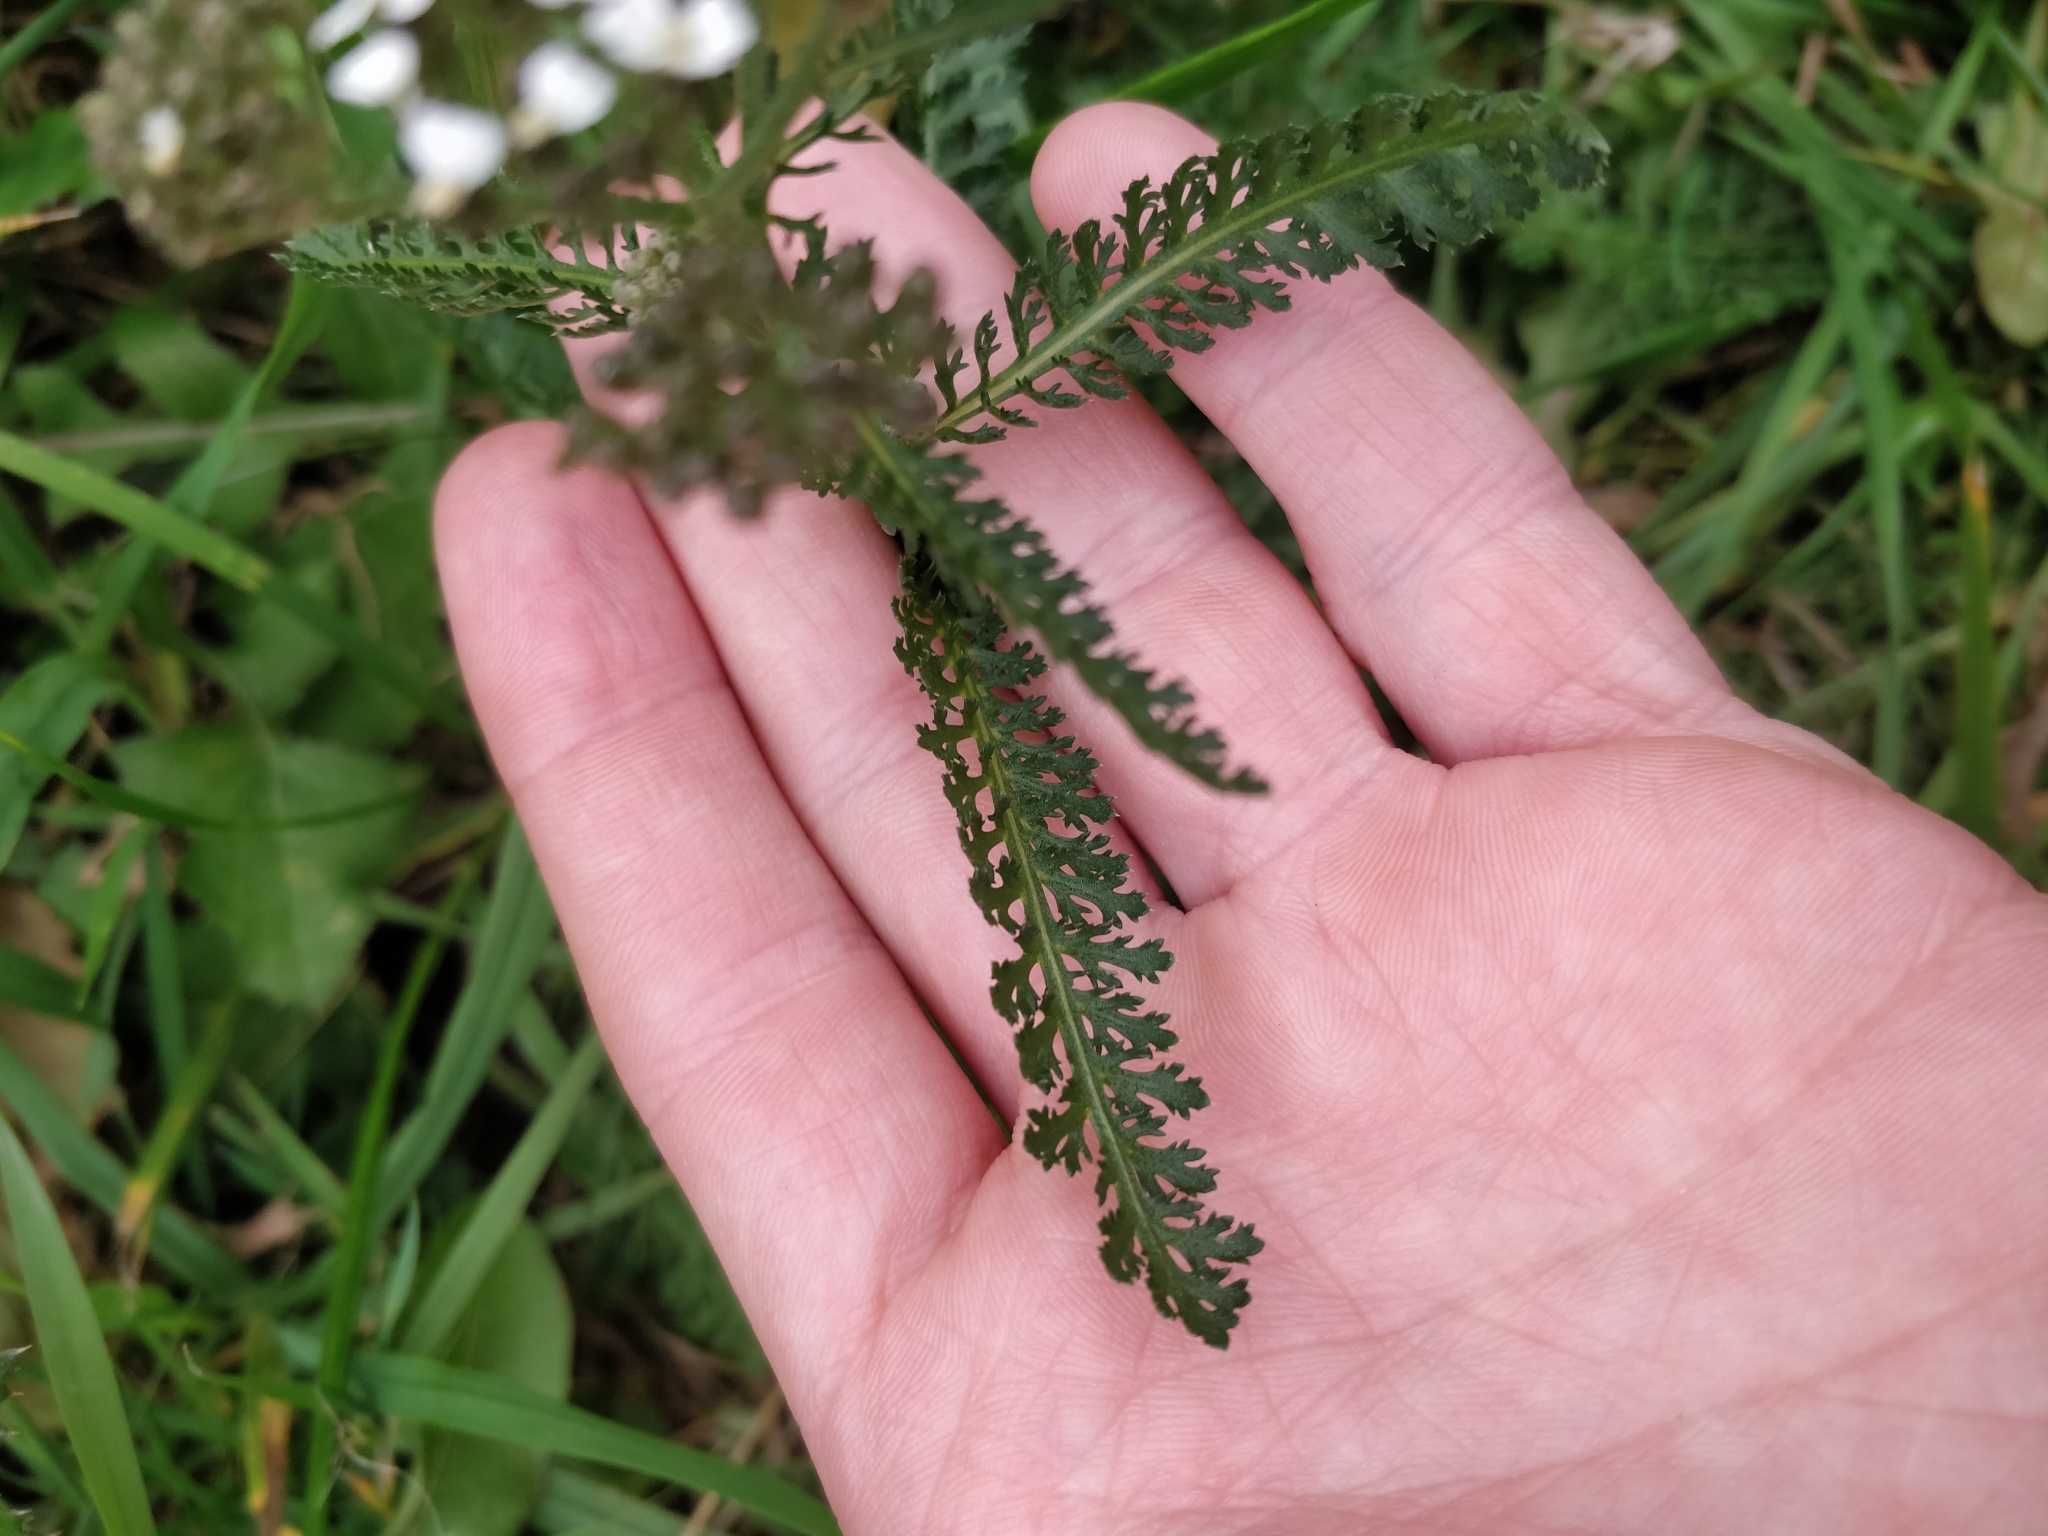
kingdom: Plantae
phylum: Tracheophyta
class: Magnoliopsida
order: Asterales
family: Asteraceae
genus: Achillea
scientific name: Achillea millefolium
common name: Yarrow
